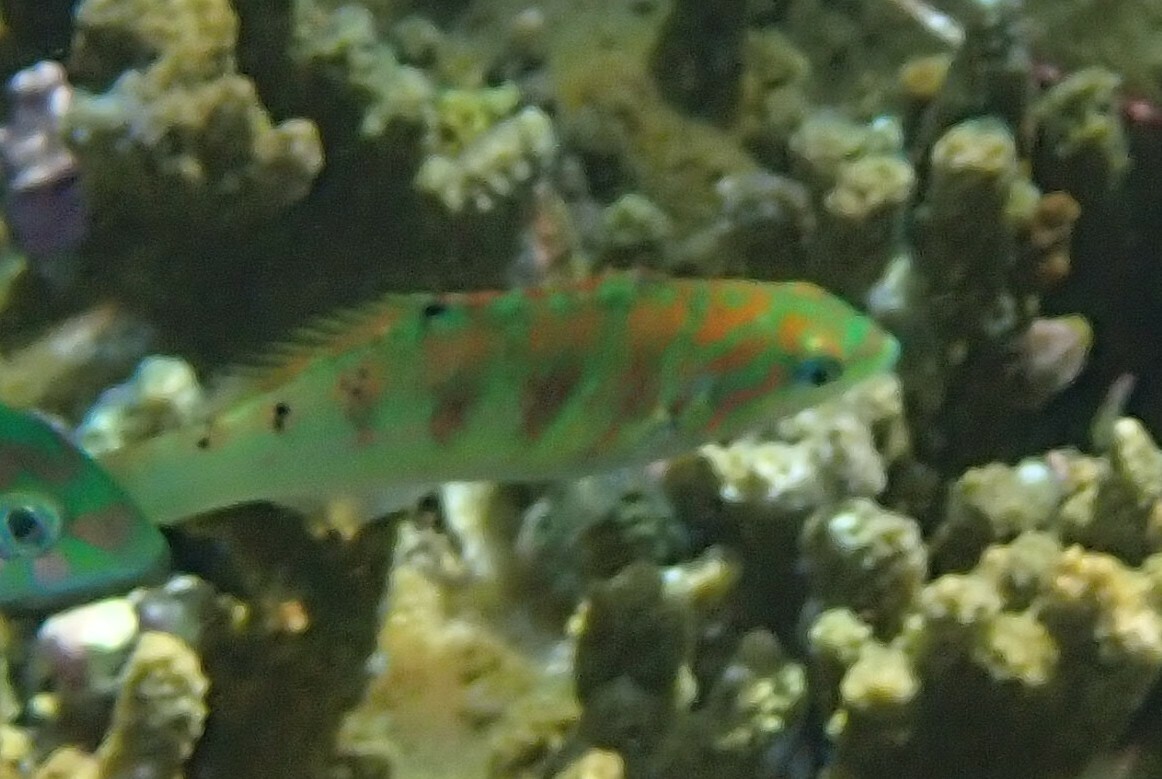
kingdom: Animalia
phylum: Chordata
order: Perciformes
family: Labridae
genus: Thalassoma
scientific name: Thalassoma hardwicke
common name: Sixbar wrasse
